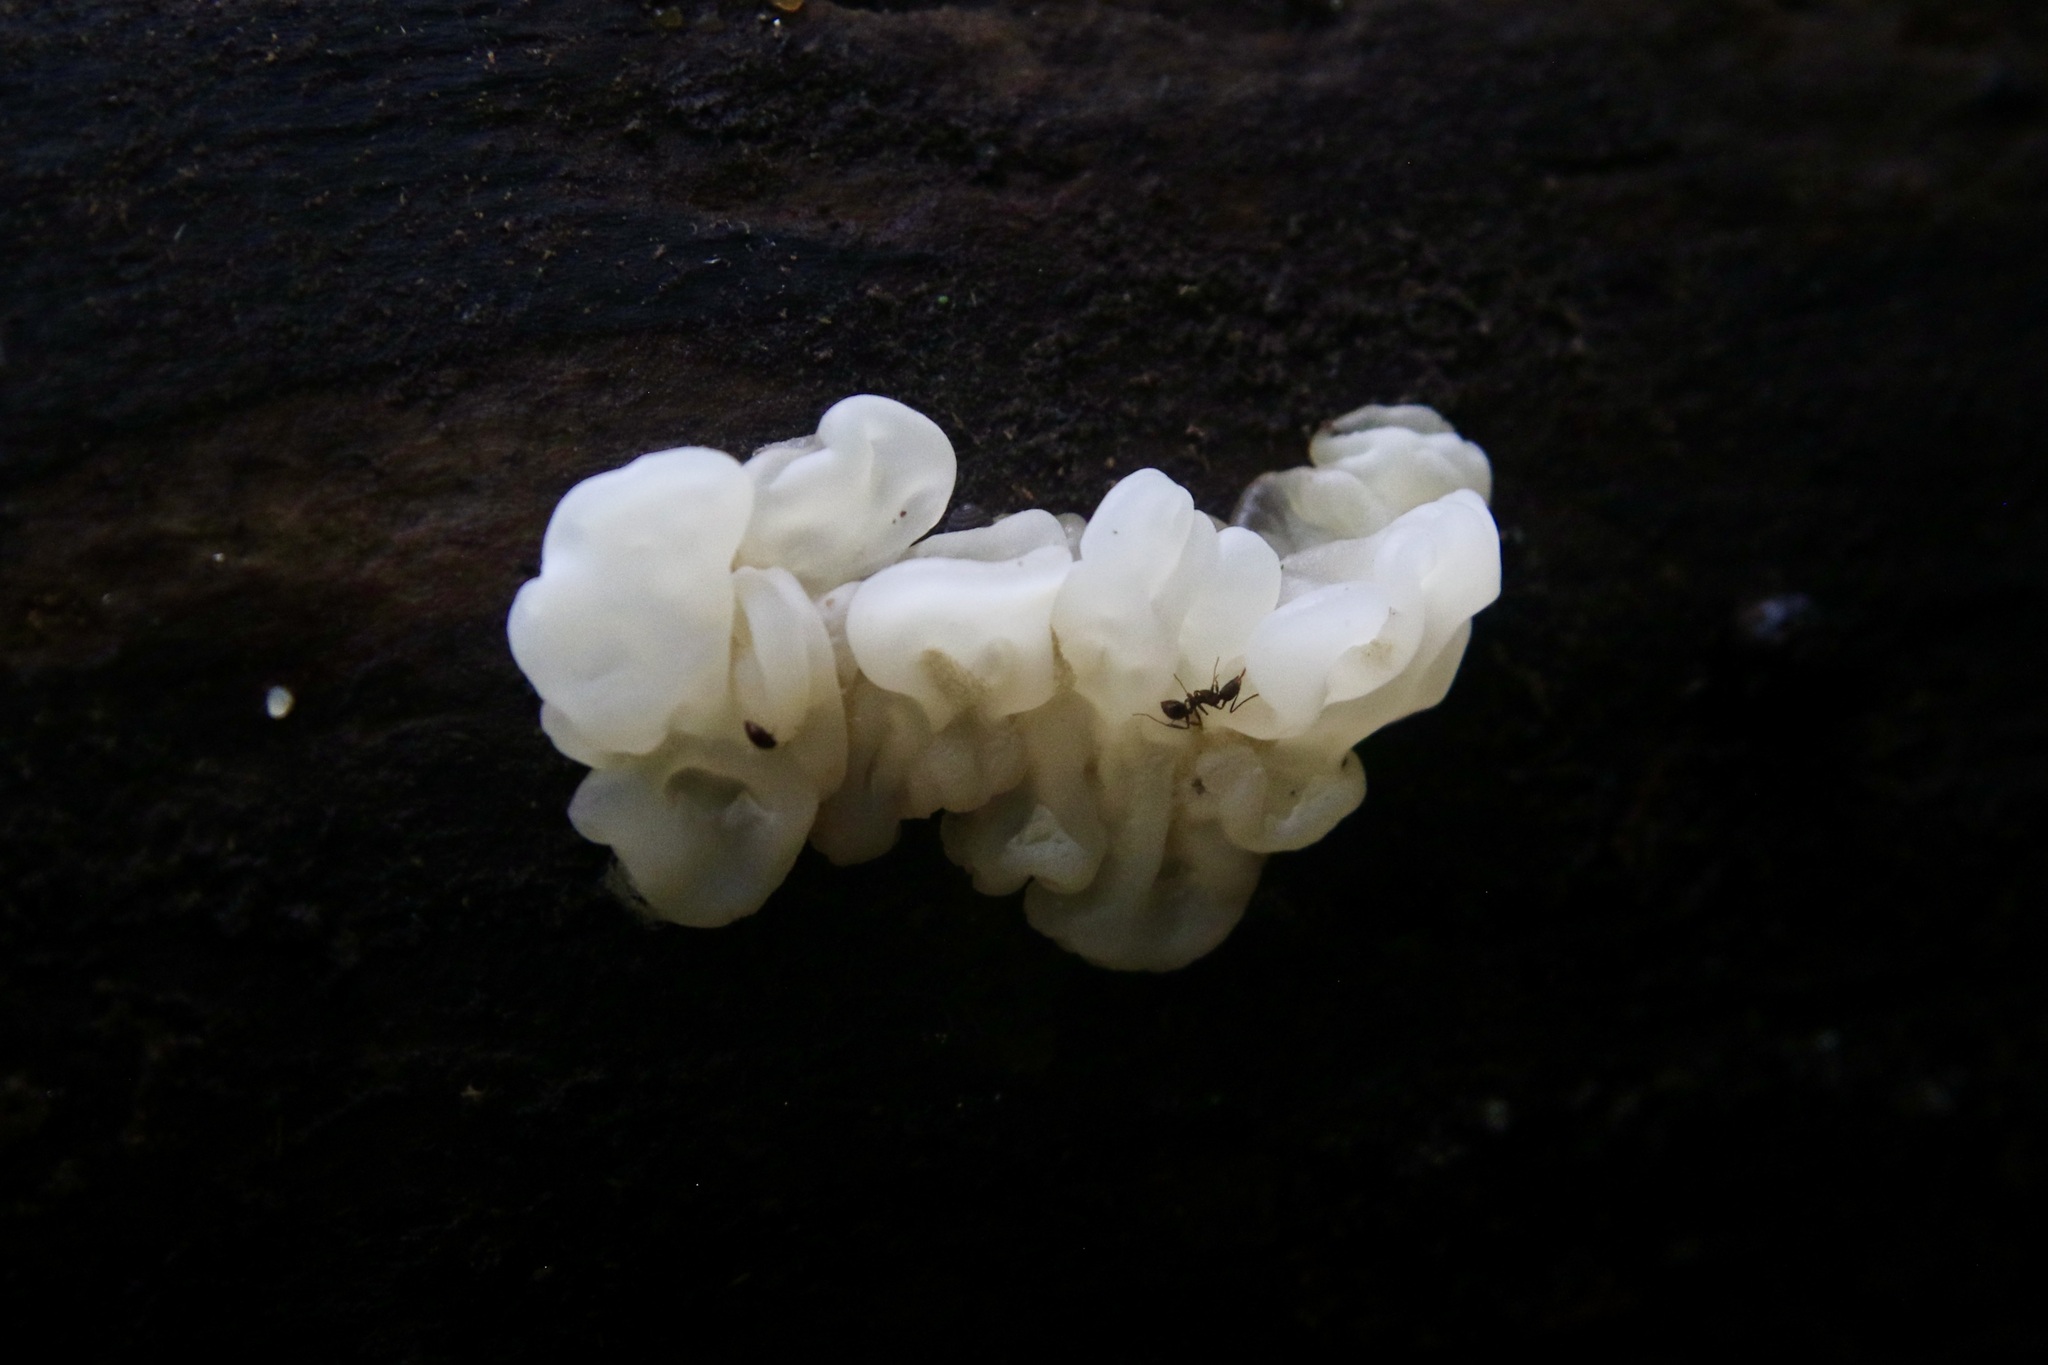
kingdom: Fungi
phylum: Basidiomycota
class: Agaricomycetes
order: Auriculariales
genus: Ductifera
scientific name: Ductifera pululahuana
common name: White jelly fungus
